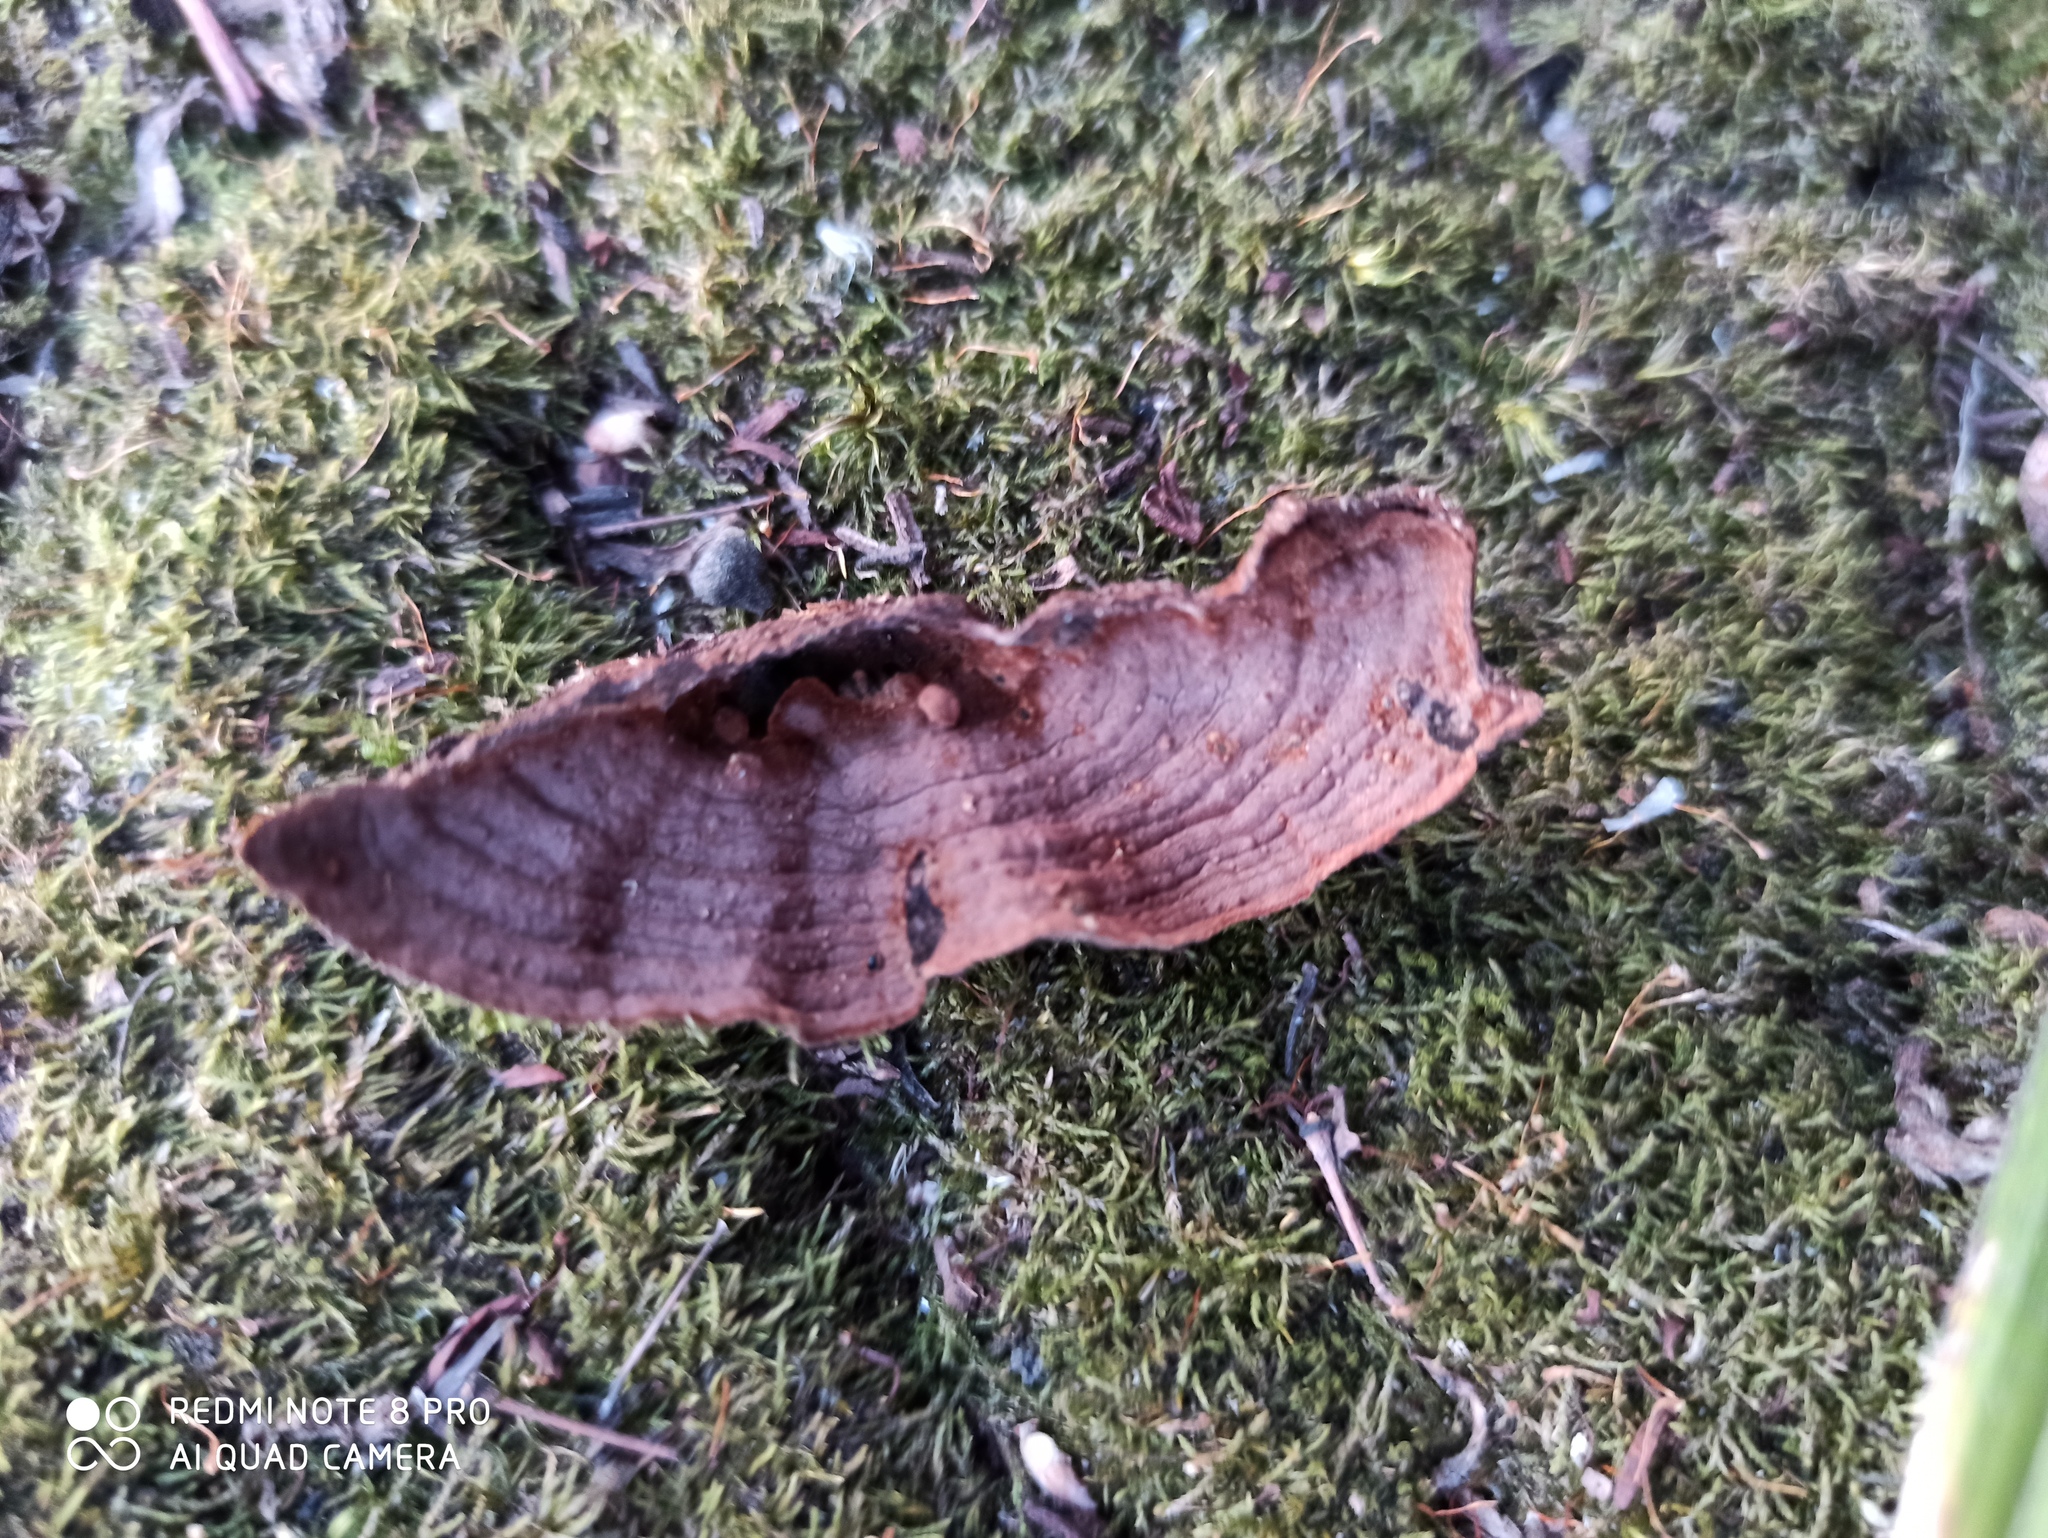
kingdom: Fungi
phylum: Basidiomycota
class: Agaricomycetes
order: Hymenochaetales
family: Hymenochaetaceae
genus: Hymenochaete
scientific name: Hymenochaete rubiginosa
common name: Oak curtain crust
